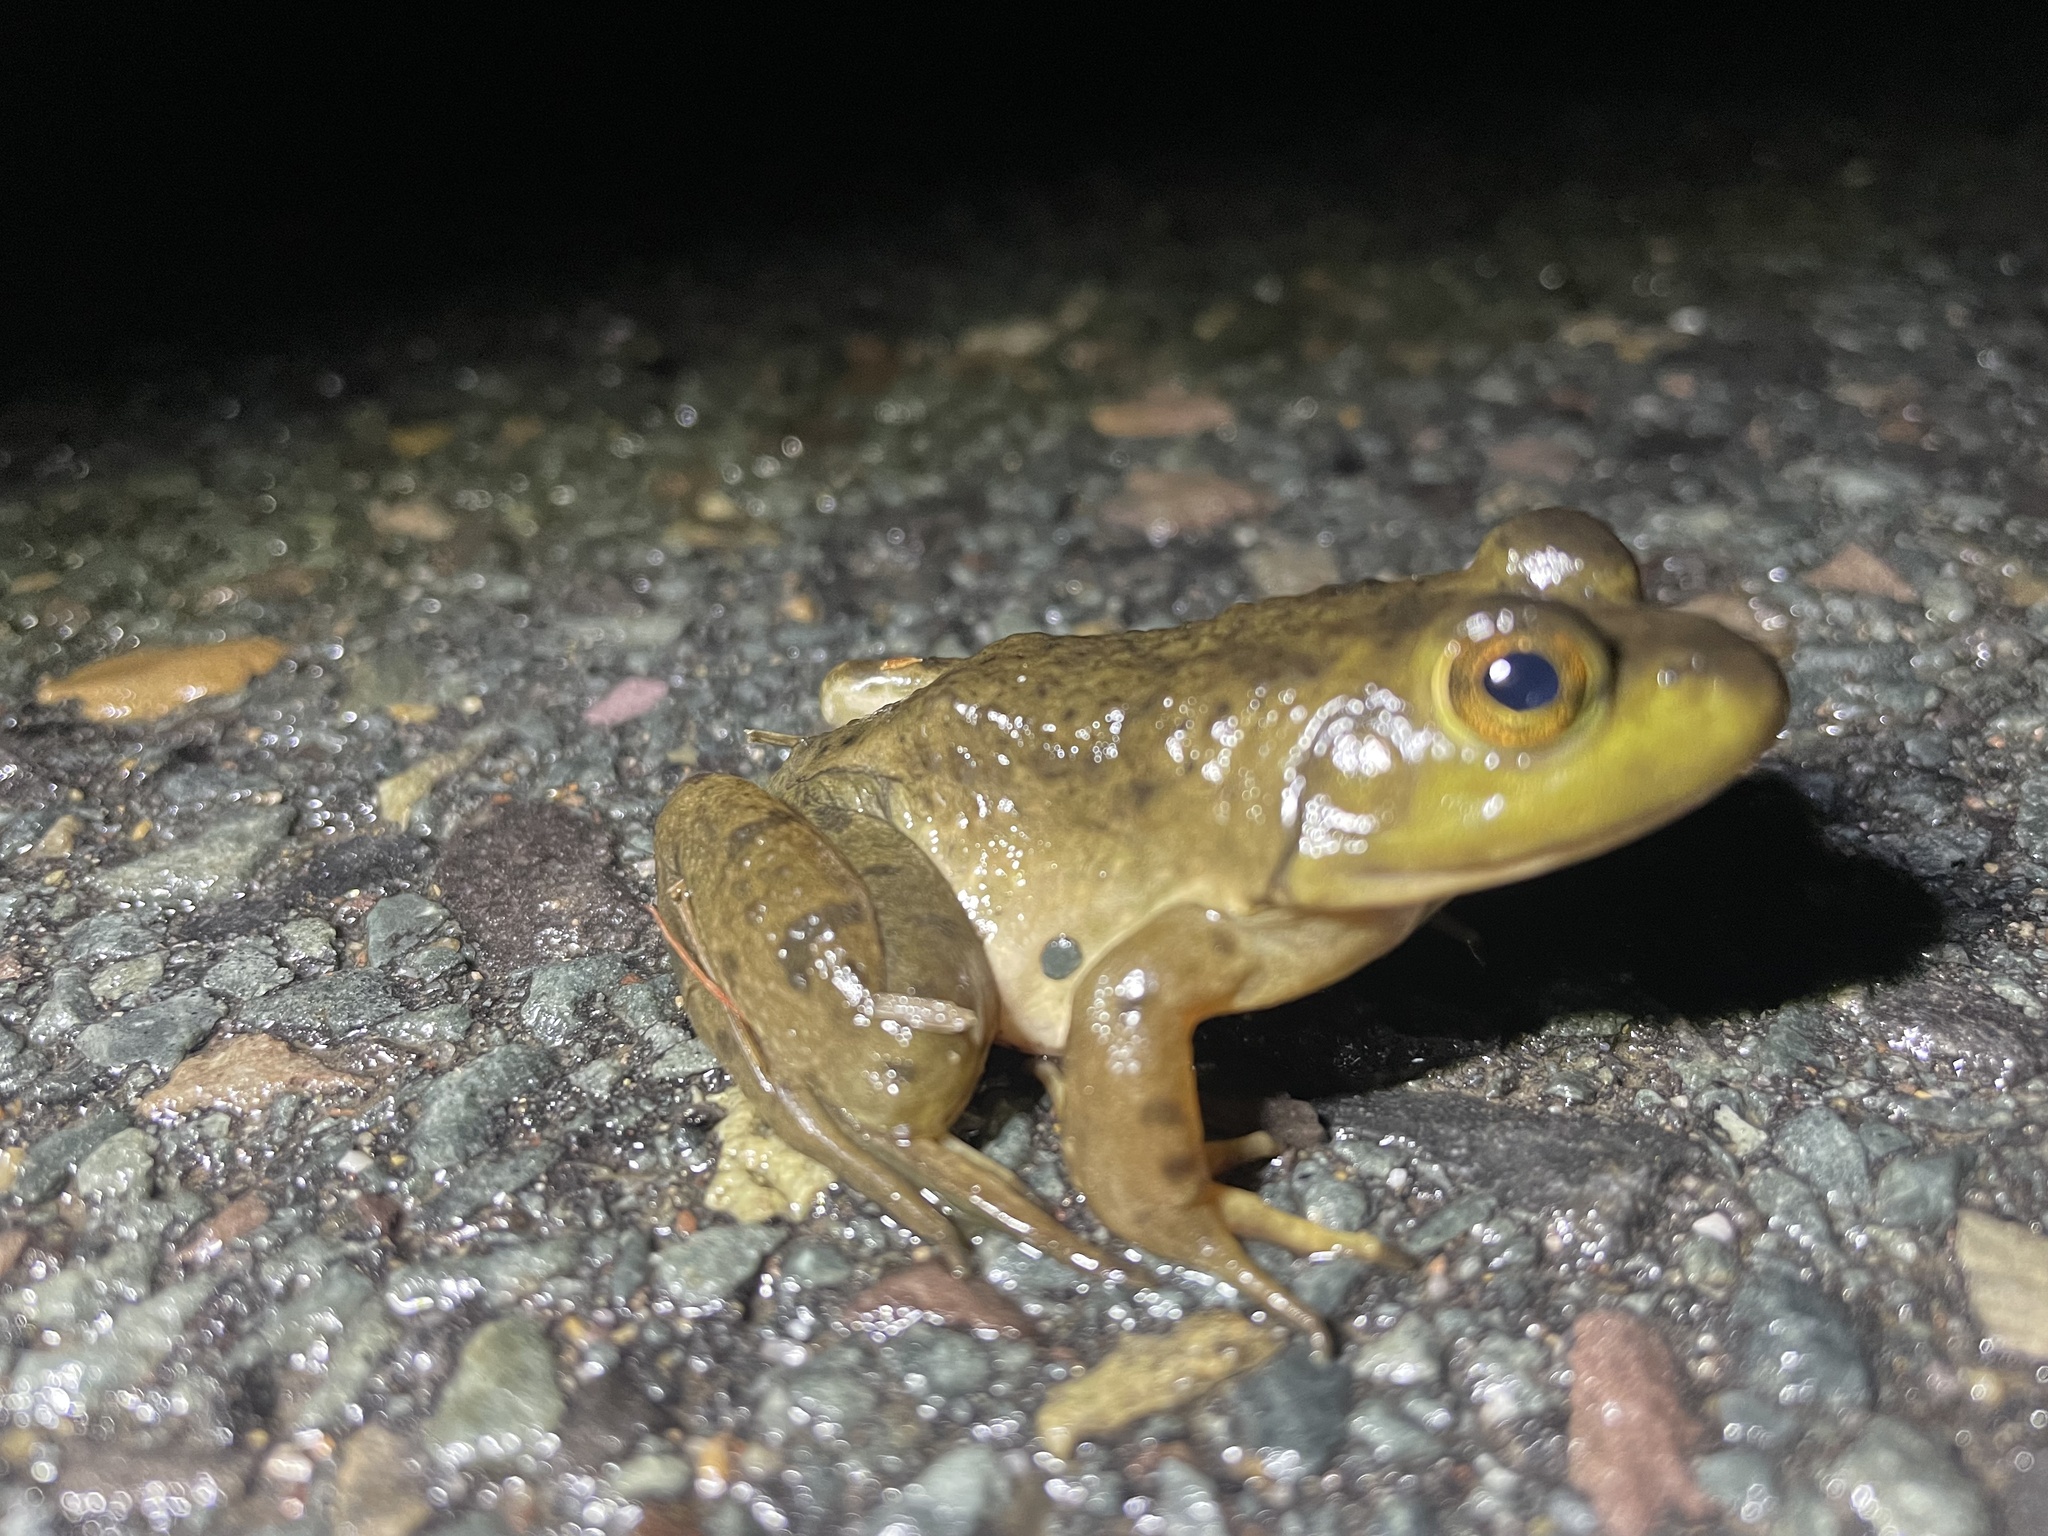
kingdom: Animalia
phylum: Chordata
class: Amphibia
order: Anura
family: Ranidae
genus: Lithobates
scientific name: Lithobates catesbeianus
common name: American bullfrog
